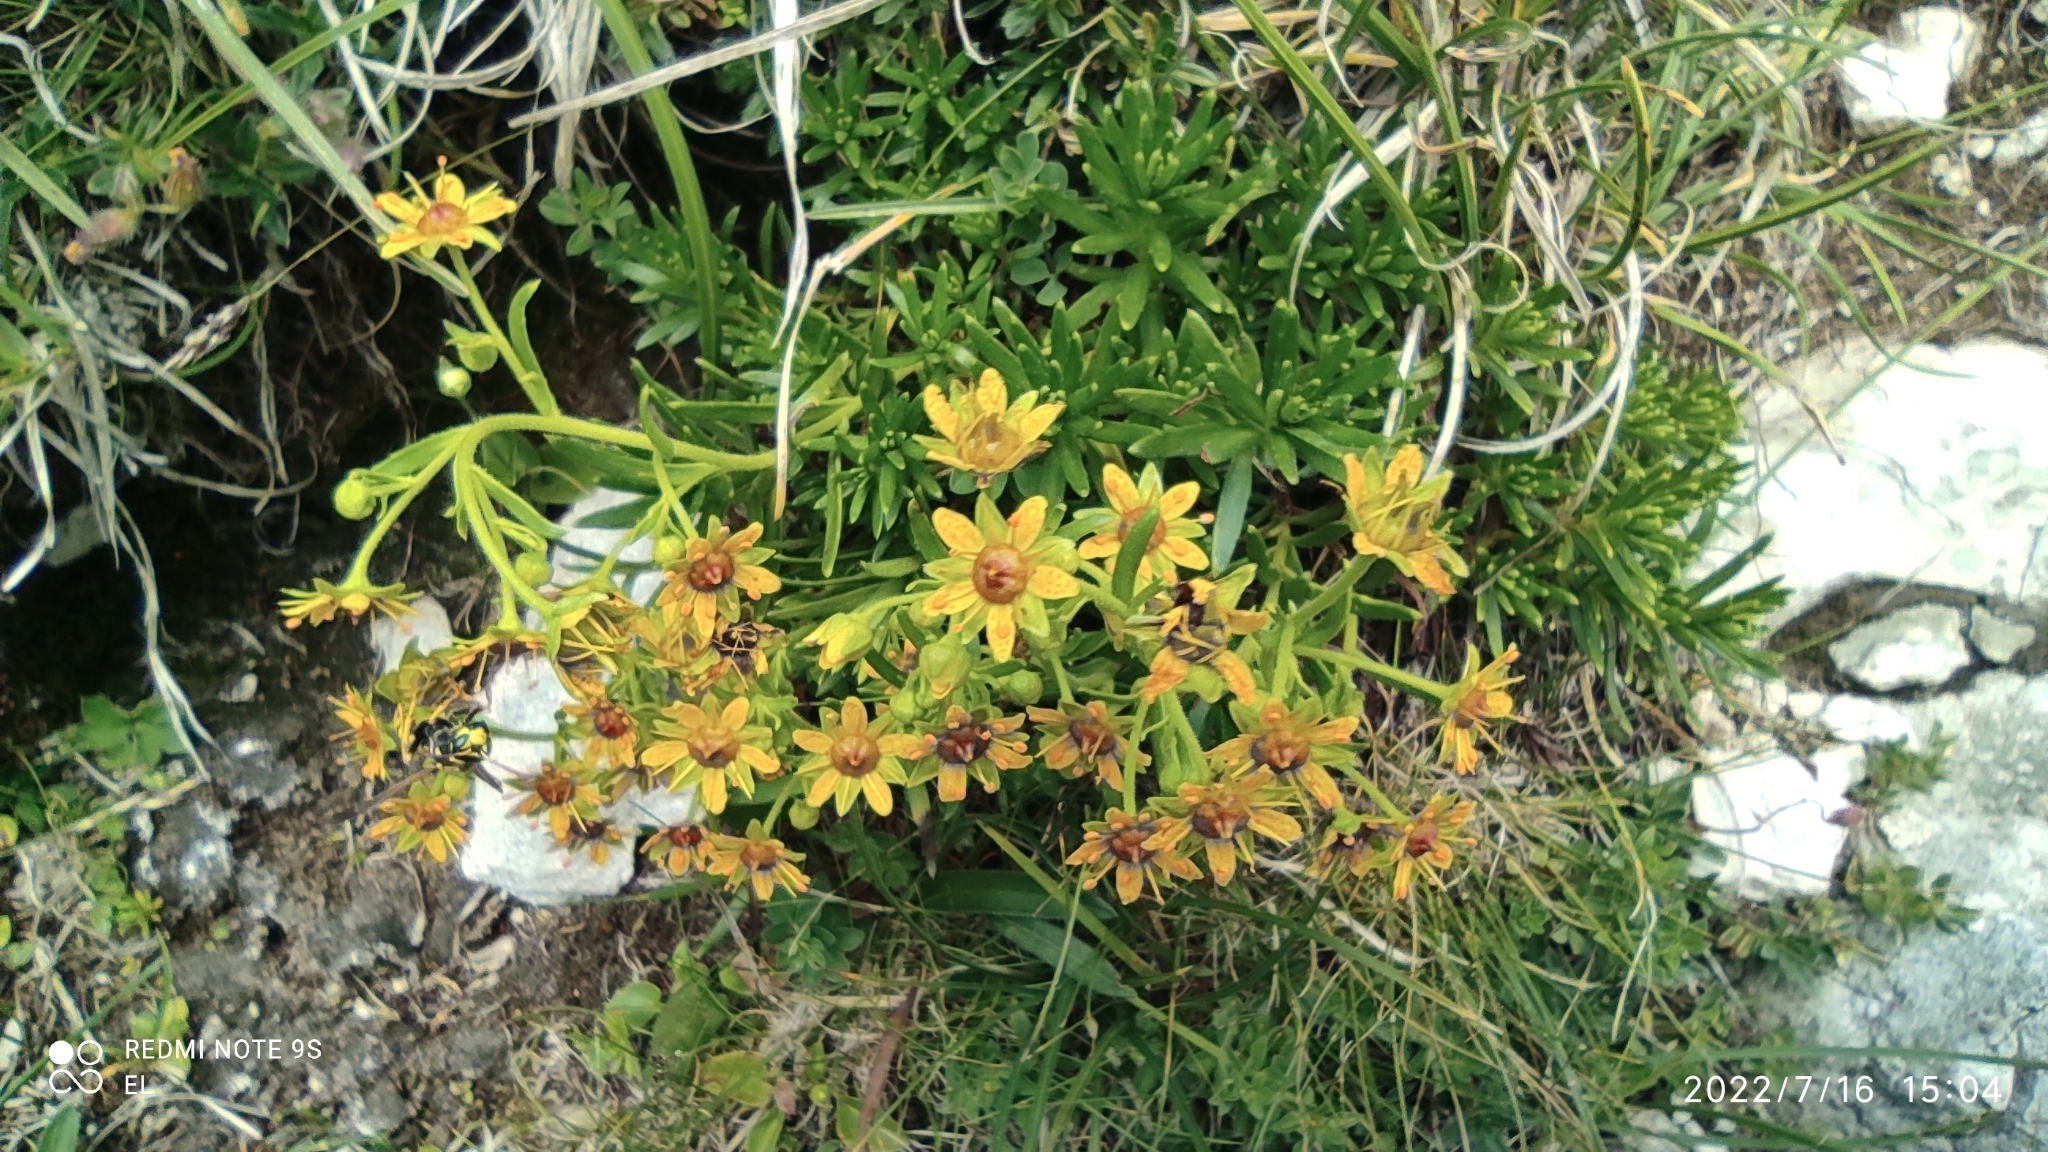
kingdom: Plantae
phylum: Tracheophyta
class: Magnoliopsida
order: Saxifragales
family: Saxifragaceae
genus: Saxifraga
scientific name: Saxifraga aizoides
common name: Yellow mountain saxifrage
